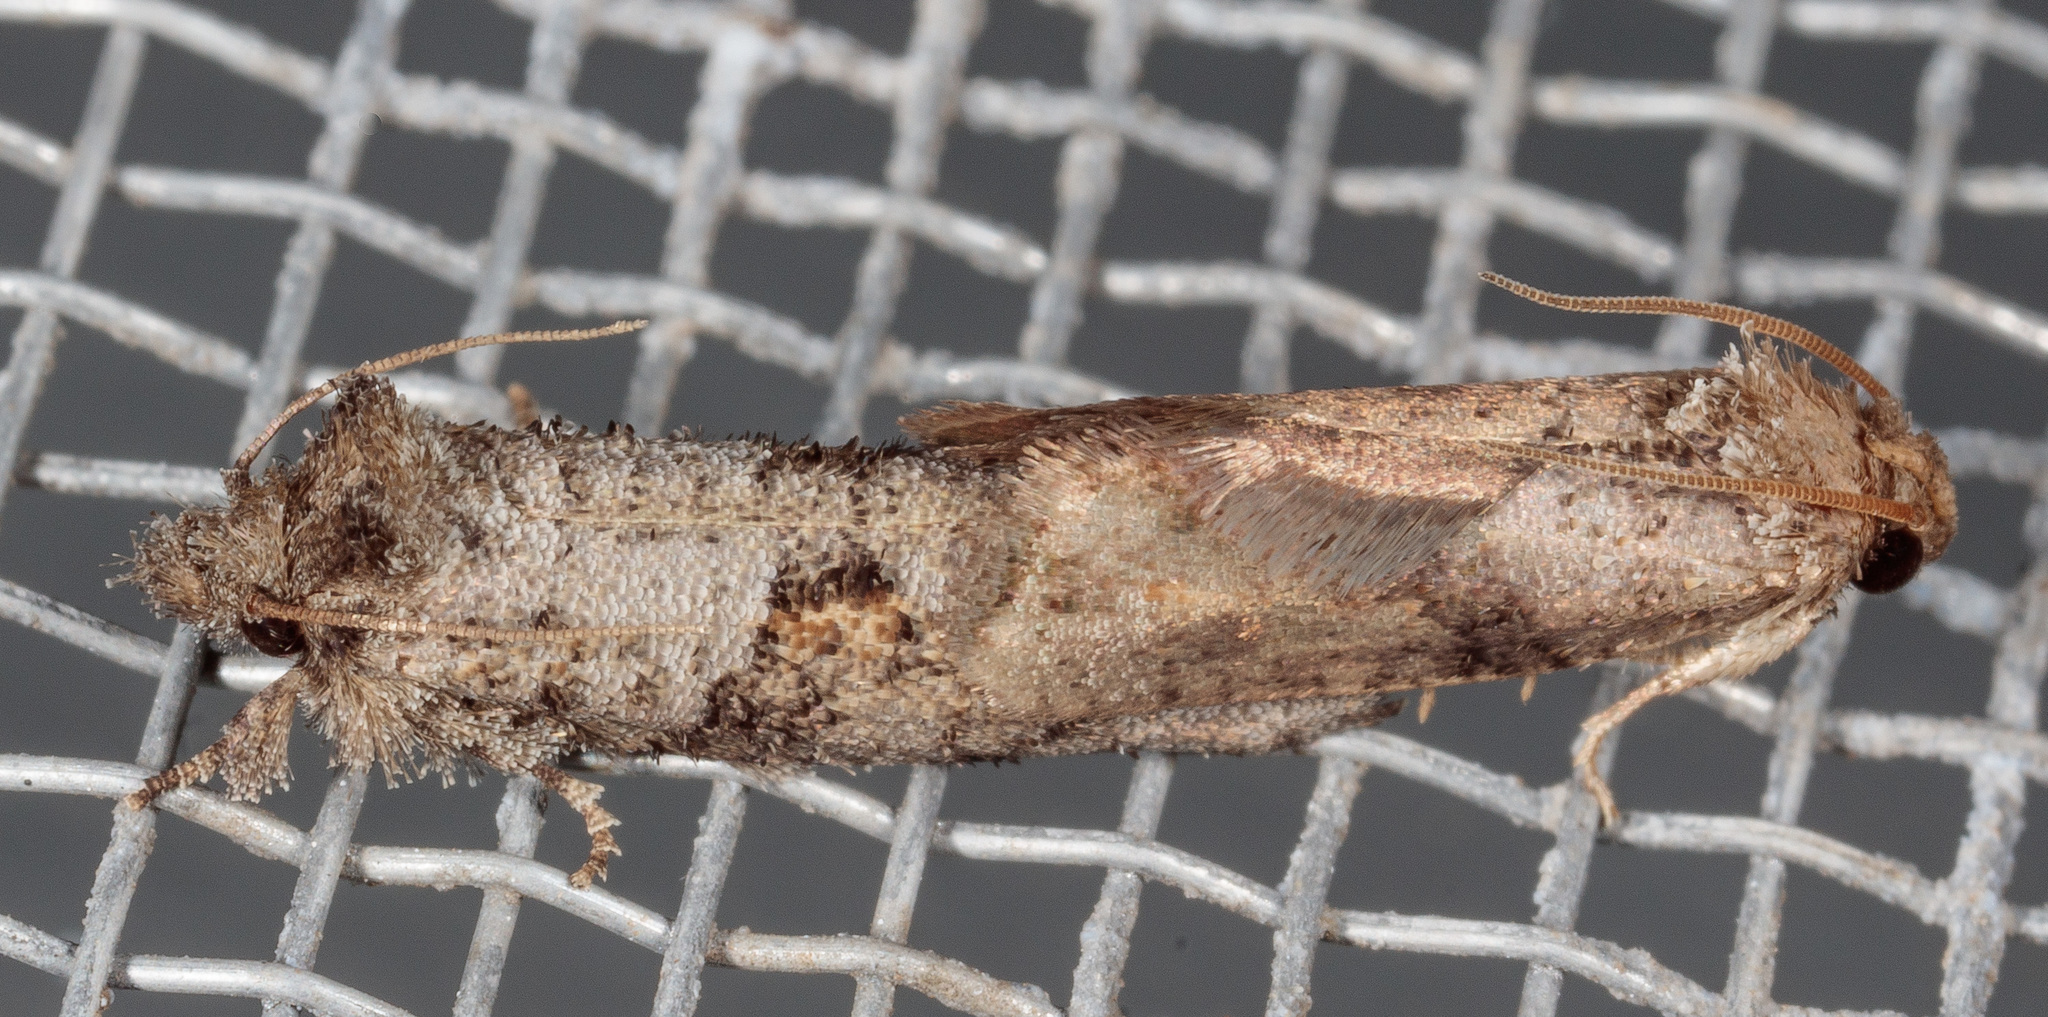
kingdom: Animalia
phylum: Arthropoda
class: Insecta
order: Lepidoptera
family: Tineidae
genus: Acrolophus
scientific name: Acrolophus piger
